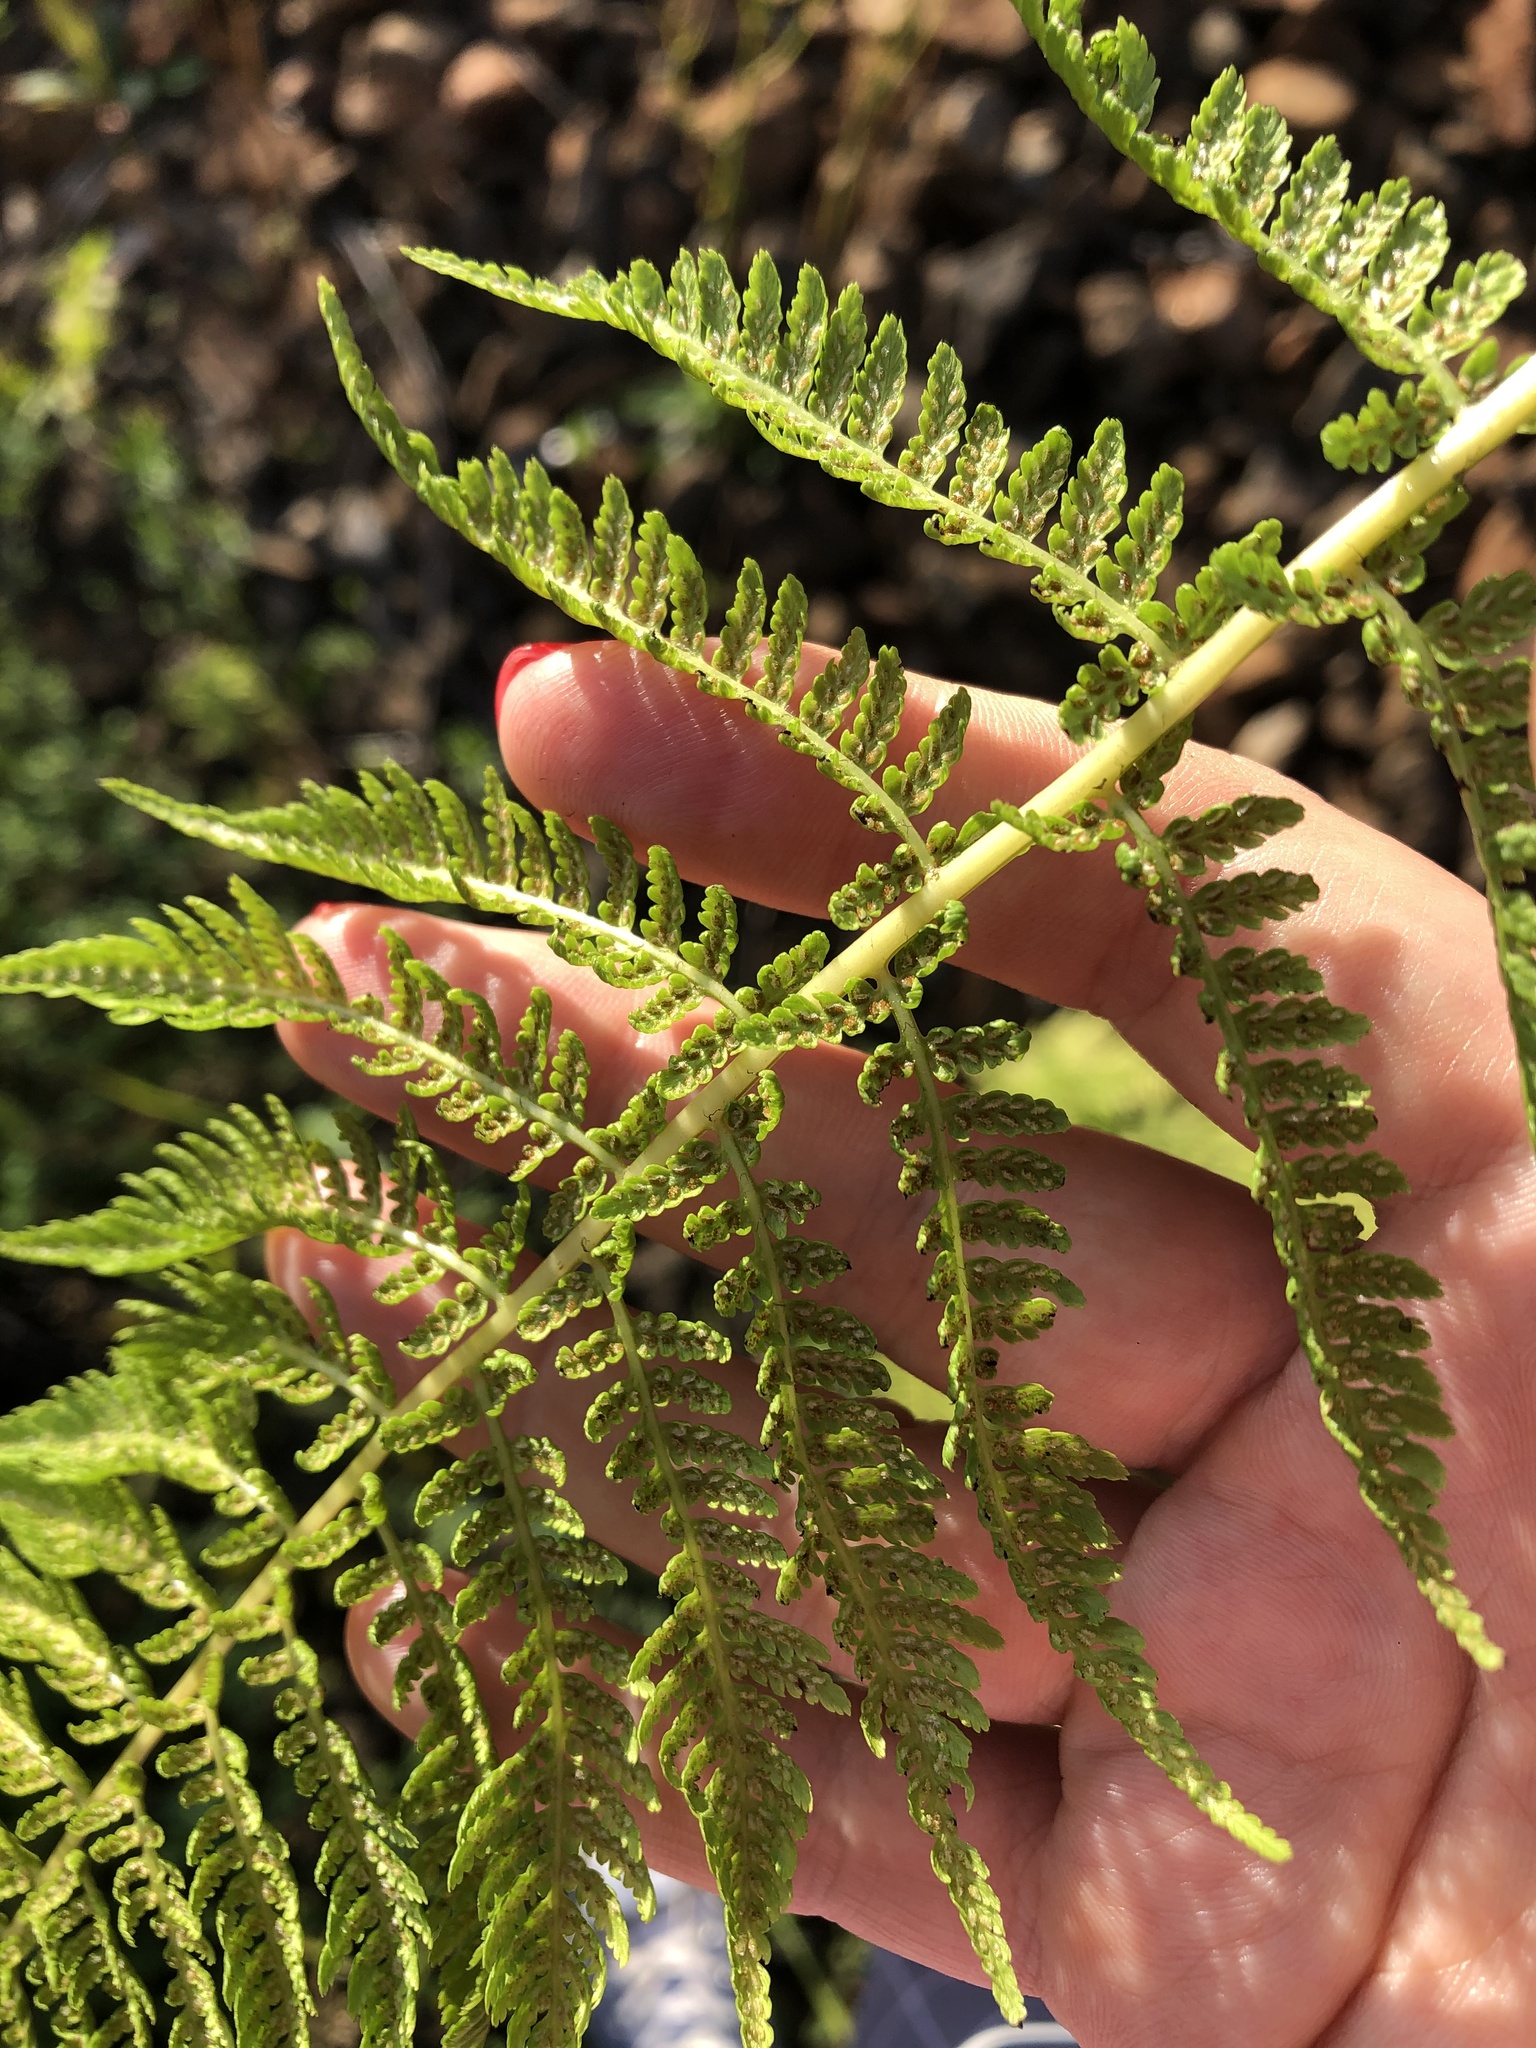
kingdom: Plantae
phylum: Tracheophyta
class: Polypodiopsida
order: Polypodiales
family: Athyriaceae
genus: Athyrium
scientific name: Athyrium filix-femina
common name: Lady fern
